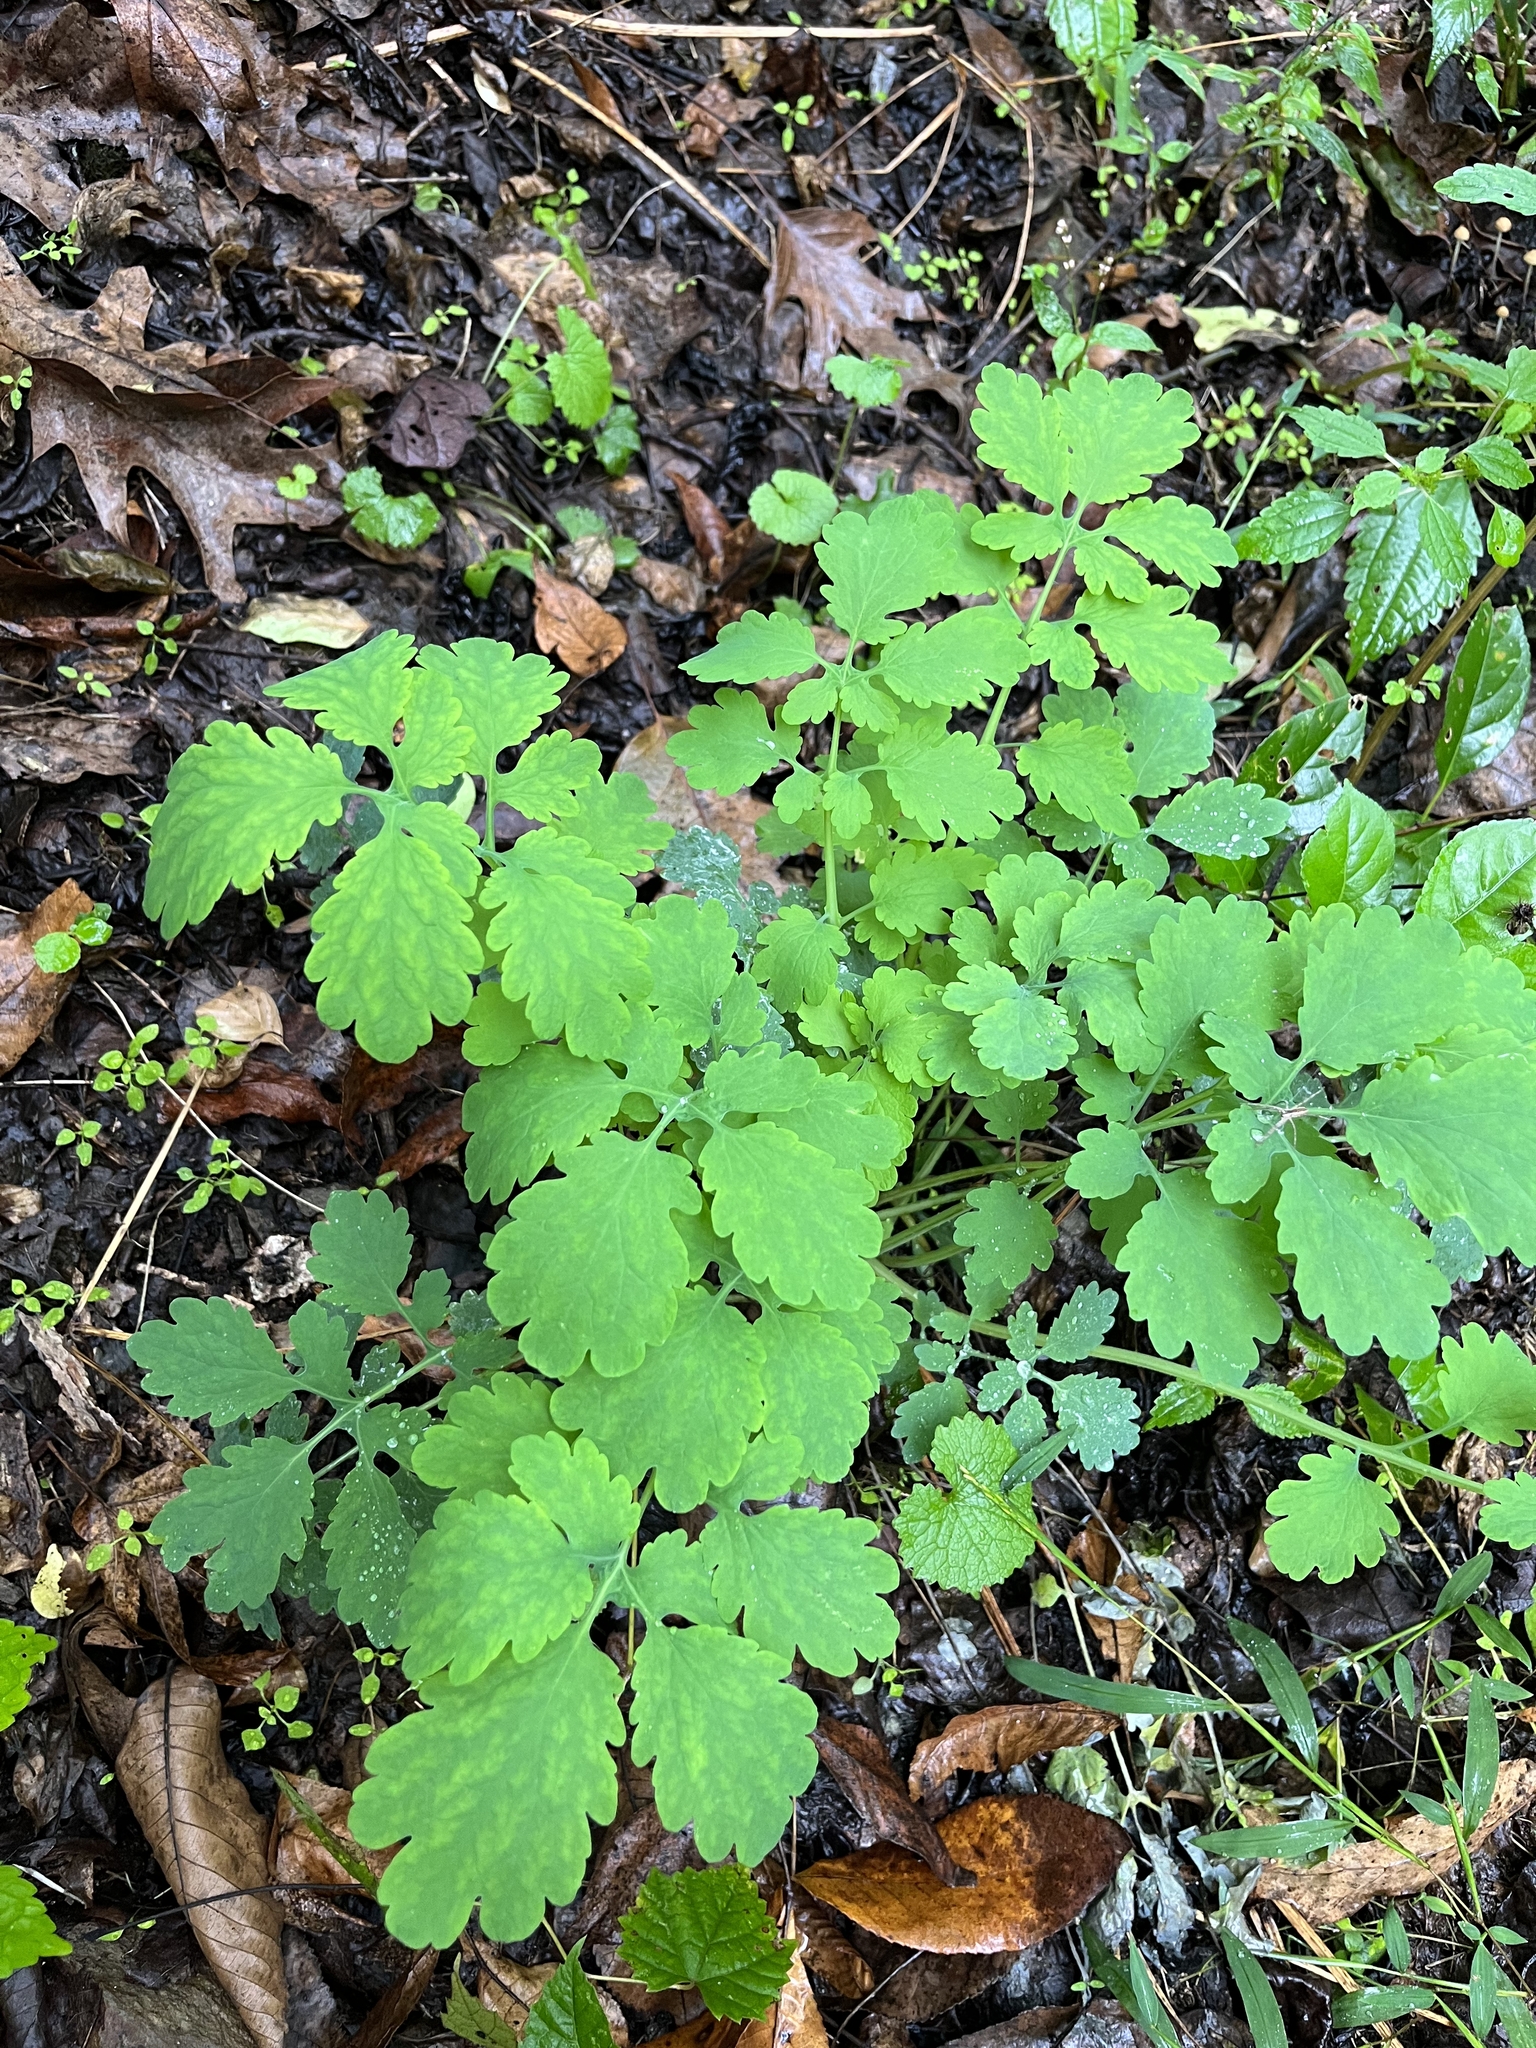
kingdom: Plantae
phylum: Tracheophyta
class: Magnoliopsida
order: Ranunculales
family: Papaveraceae
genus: Chelidonium
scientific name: Chelidonium majus
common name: Greater celandine
